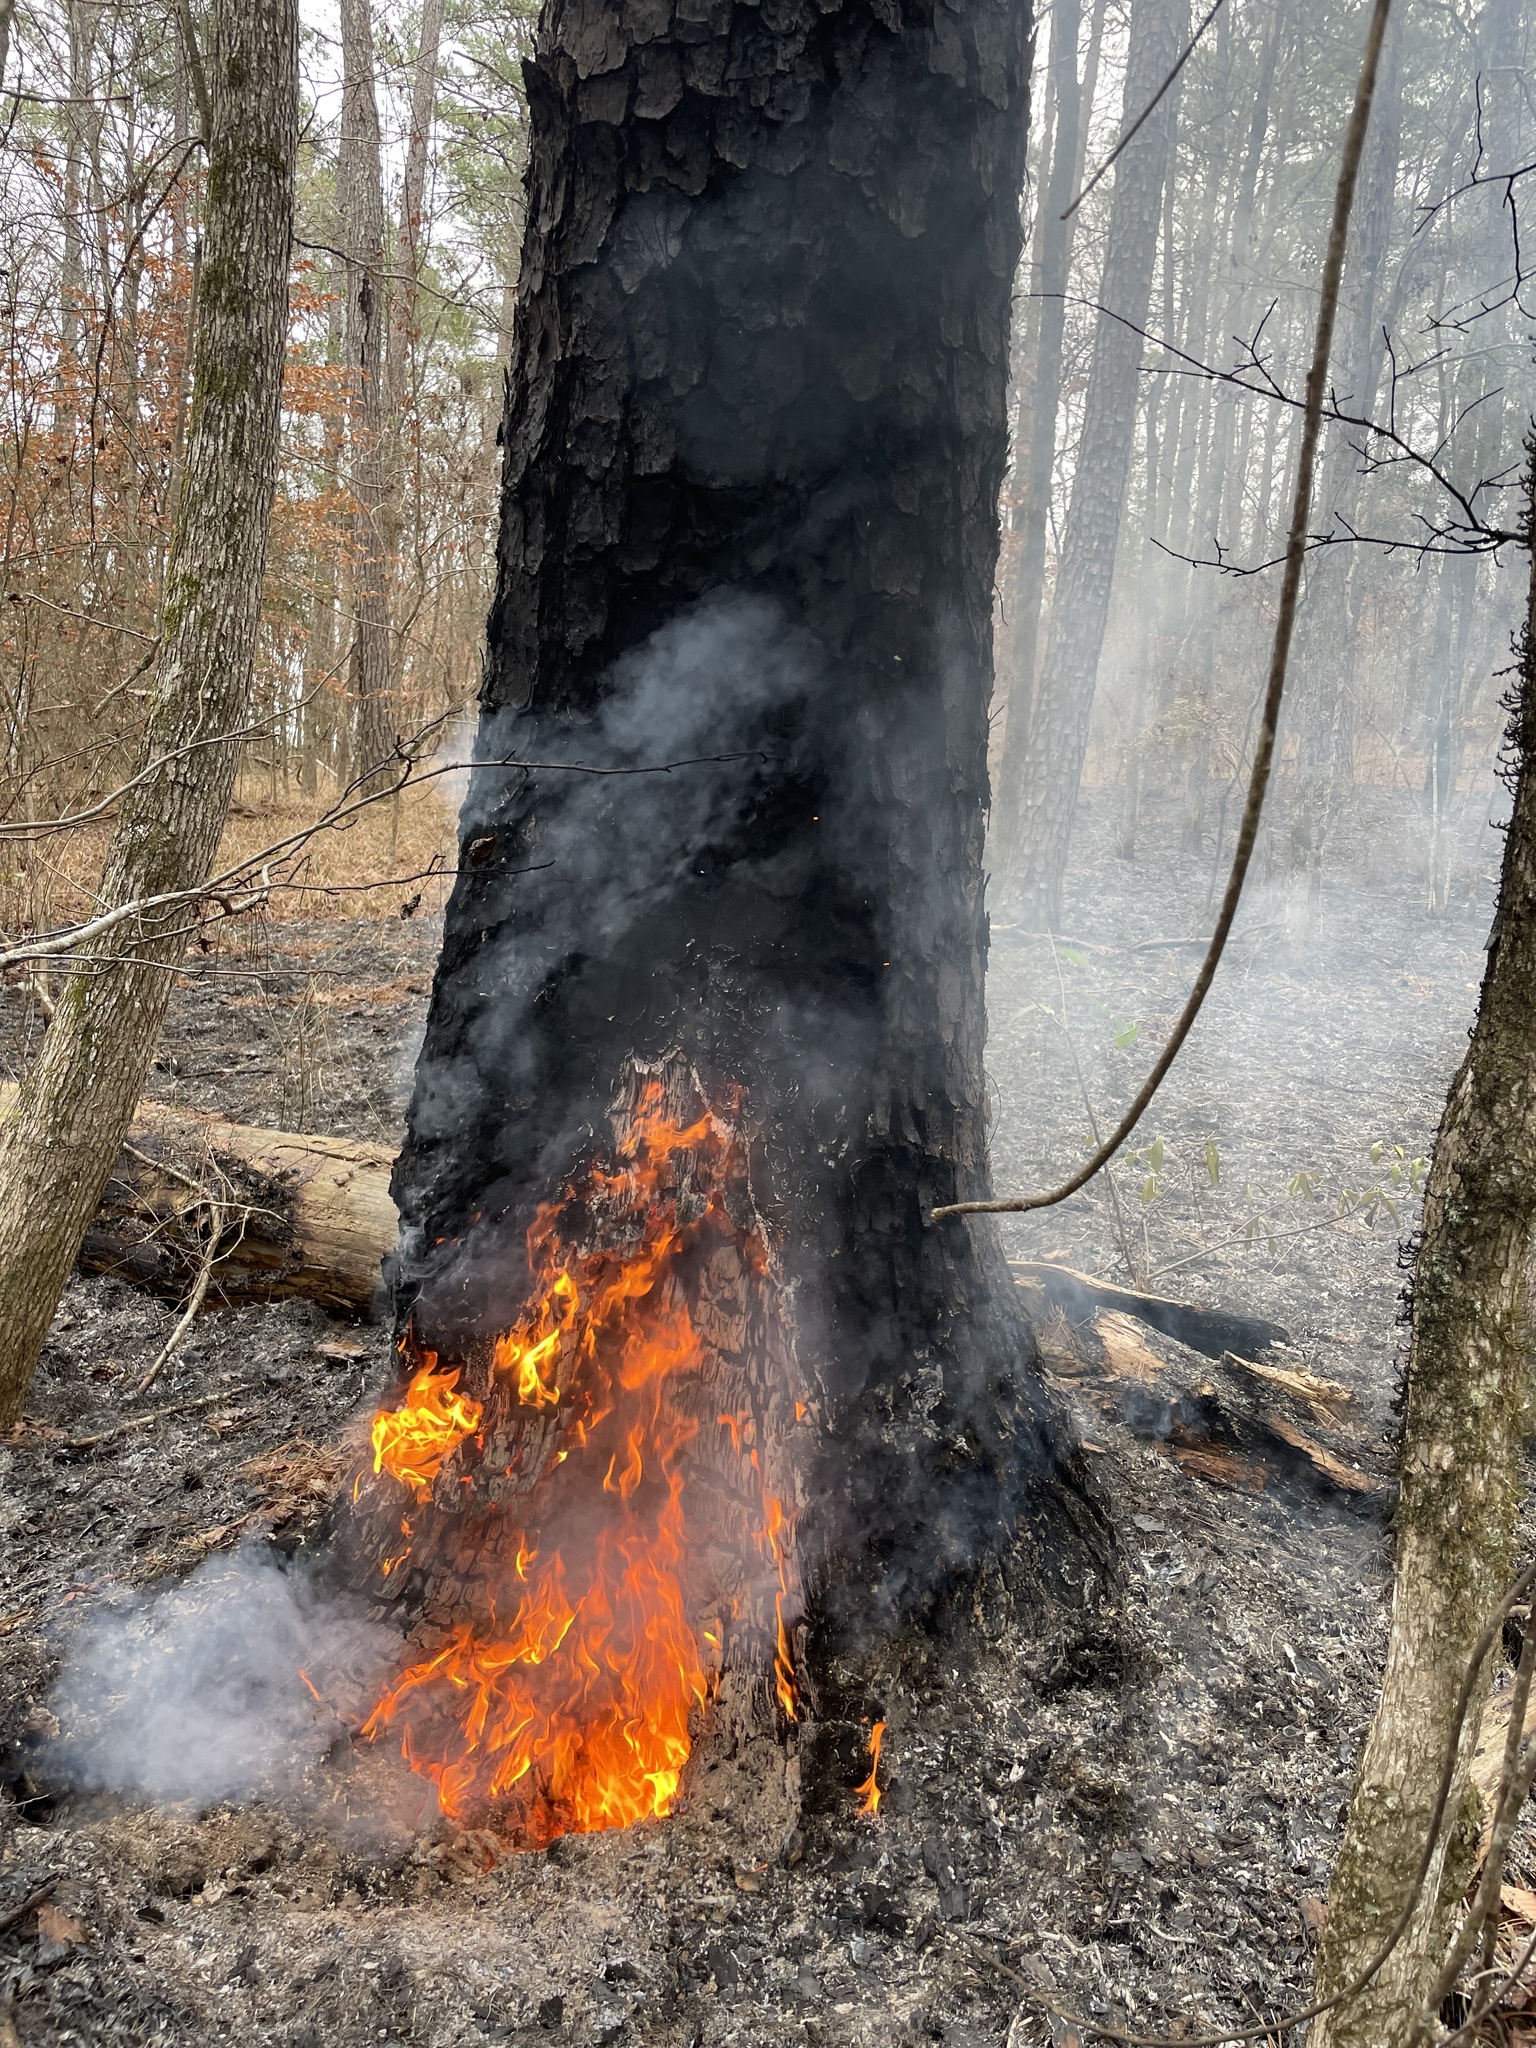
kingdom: Plantae
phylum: Tracheophyta
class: Pinopsida
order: Pinales
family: Pinaceae
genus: Pinus
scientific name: Pinus taeda
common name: Loblolly pine
